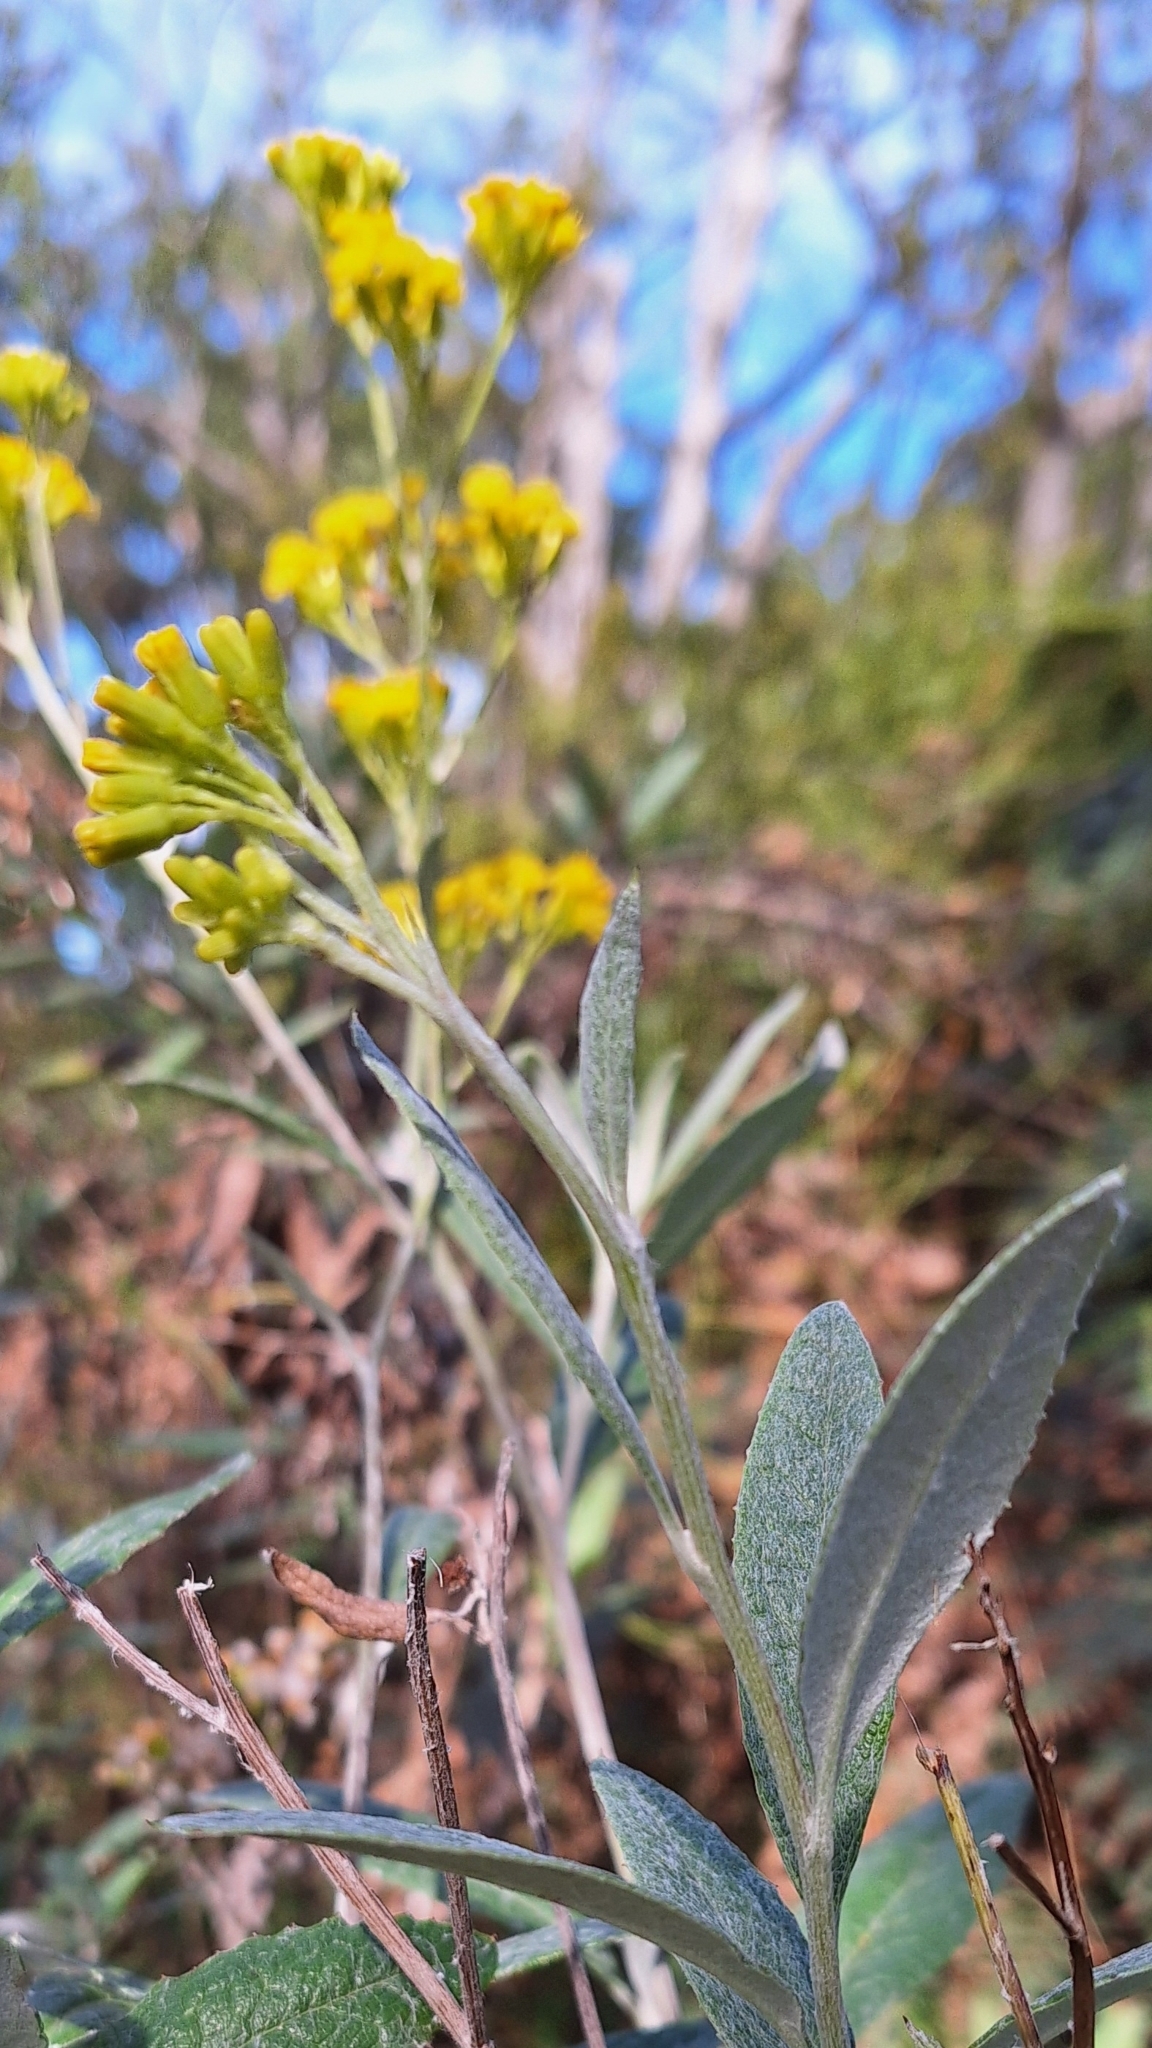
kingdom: Plantae
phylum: Tracheophyta
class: Magnoliopsida
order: Asterales
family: Asteraceae
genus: Senecio
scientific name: Senecio hypoleucus
